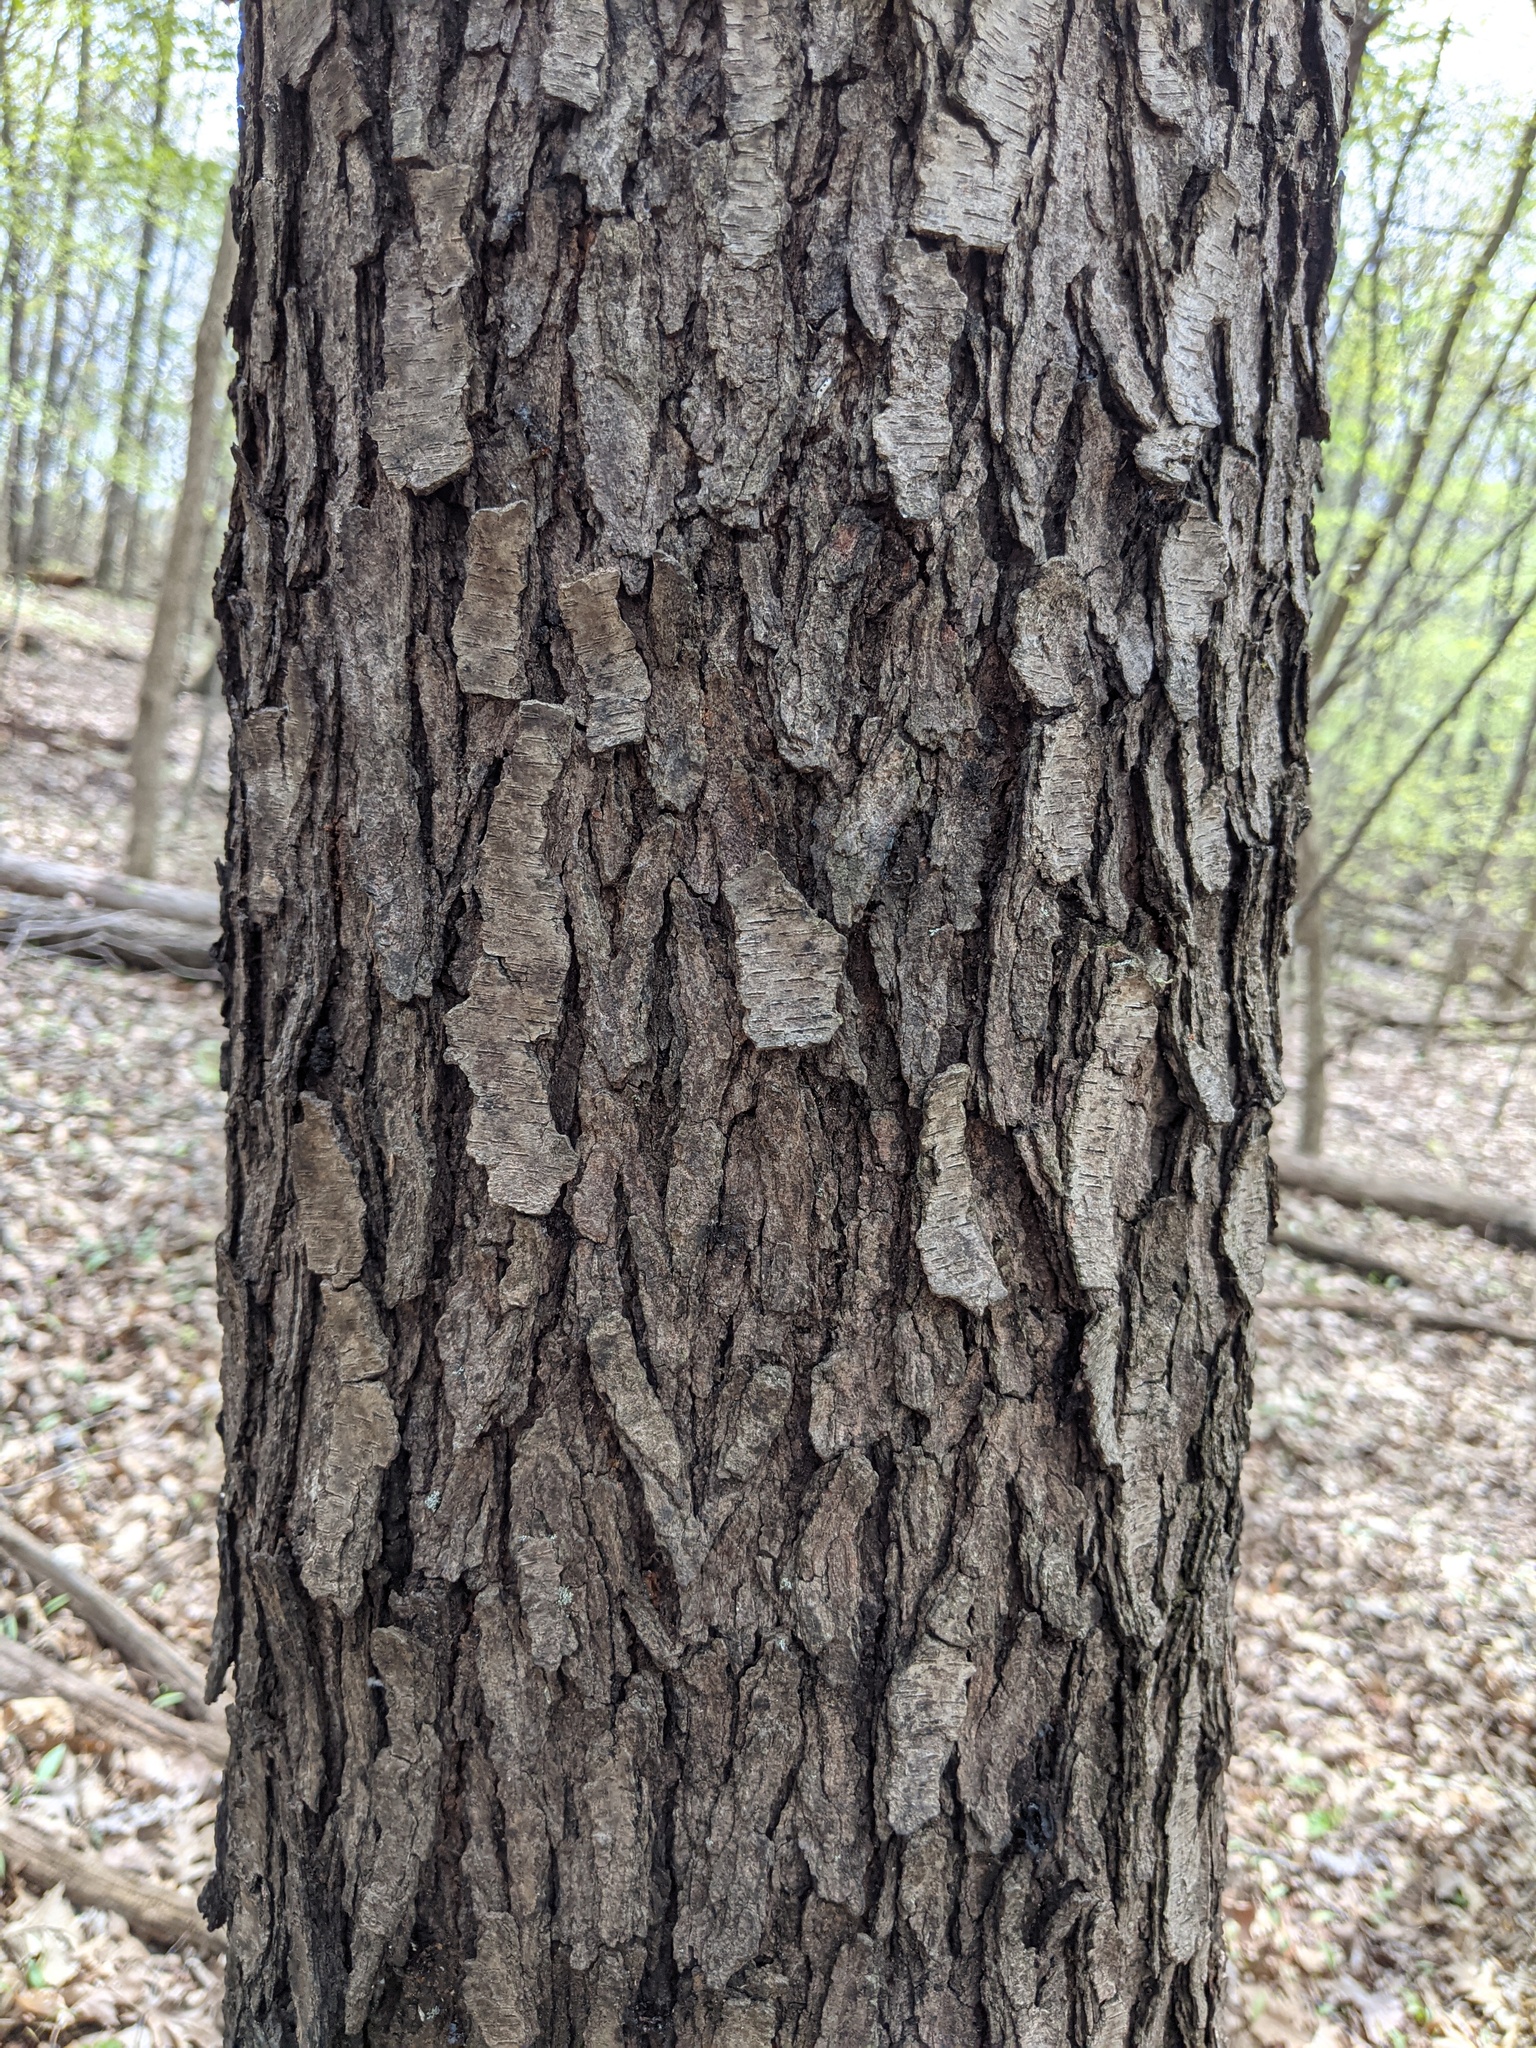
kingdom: Plantae
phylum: Tracheophyta
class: Magnoliopsida
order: Rosales
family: Rosaceae
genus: Prunus
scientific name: Prunus serotina
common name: Black cherry
